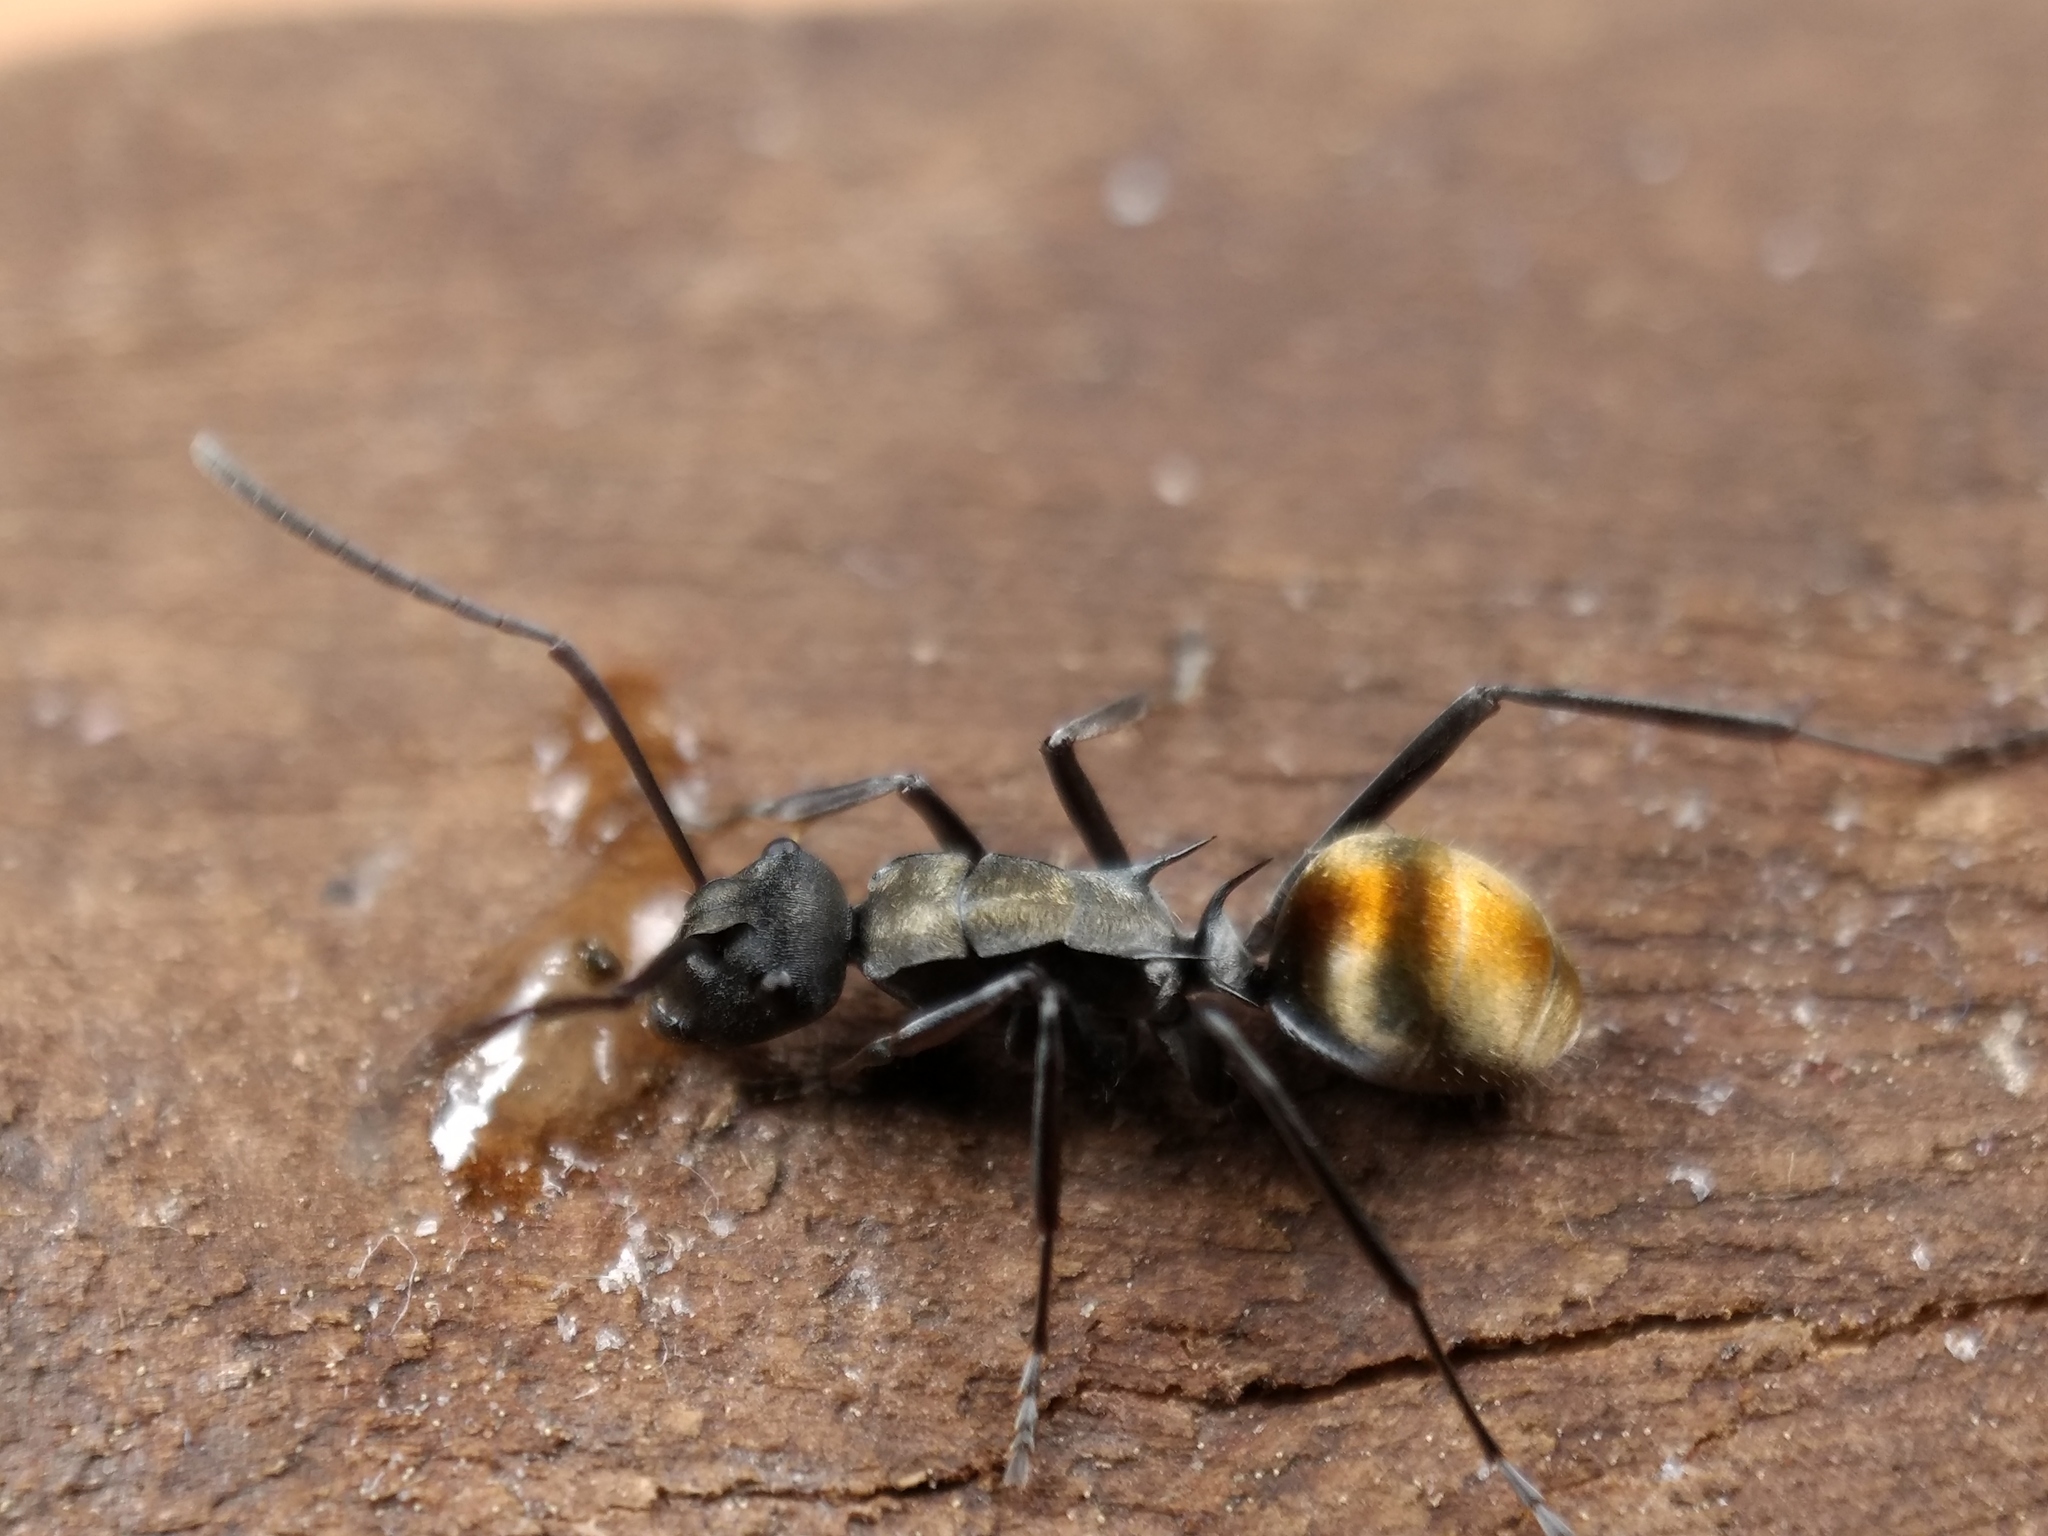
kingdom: Animalia
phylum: Arthropoda
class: Insecta
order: Hymenoptera
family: Formicidae
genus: Polyrhachis
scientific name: Polyrhachis angusta
